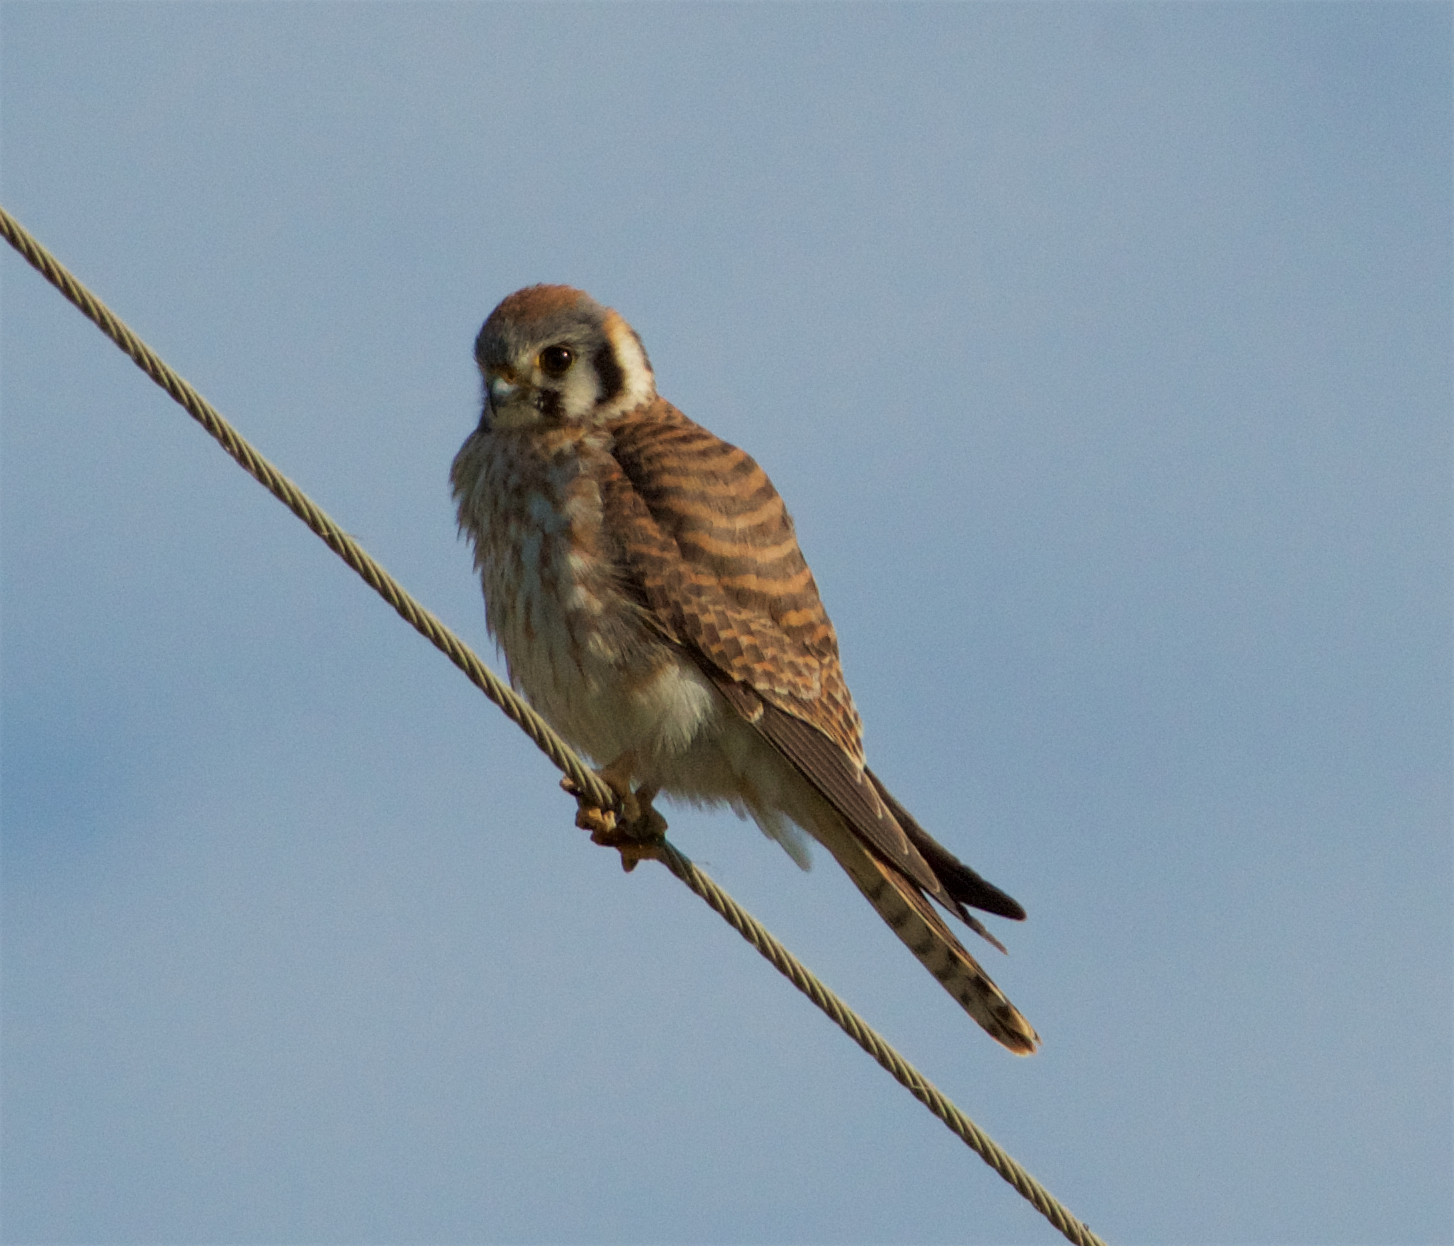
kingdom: Animalia
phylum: Chordata
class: Aves
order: Falconiformes
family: Falconidae
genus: Falco
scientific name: Falco sparverius
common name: American kestrel
